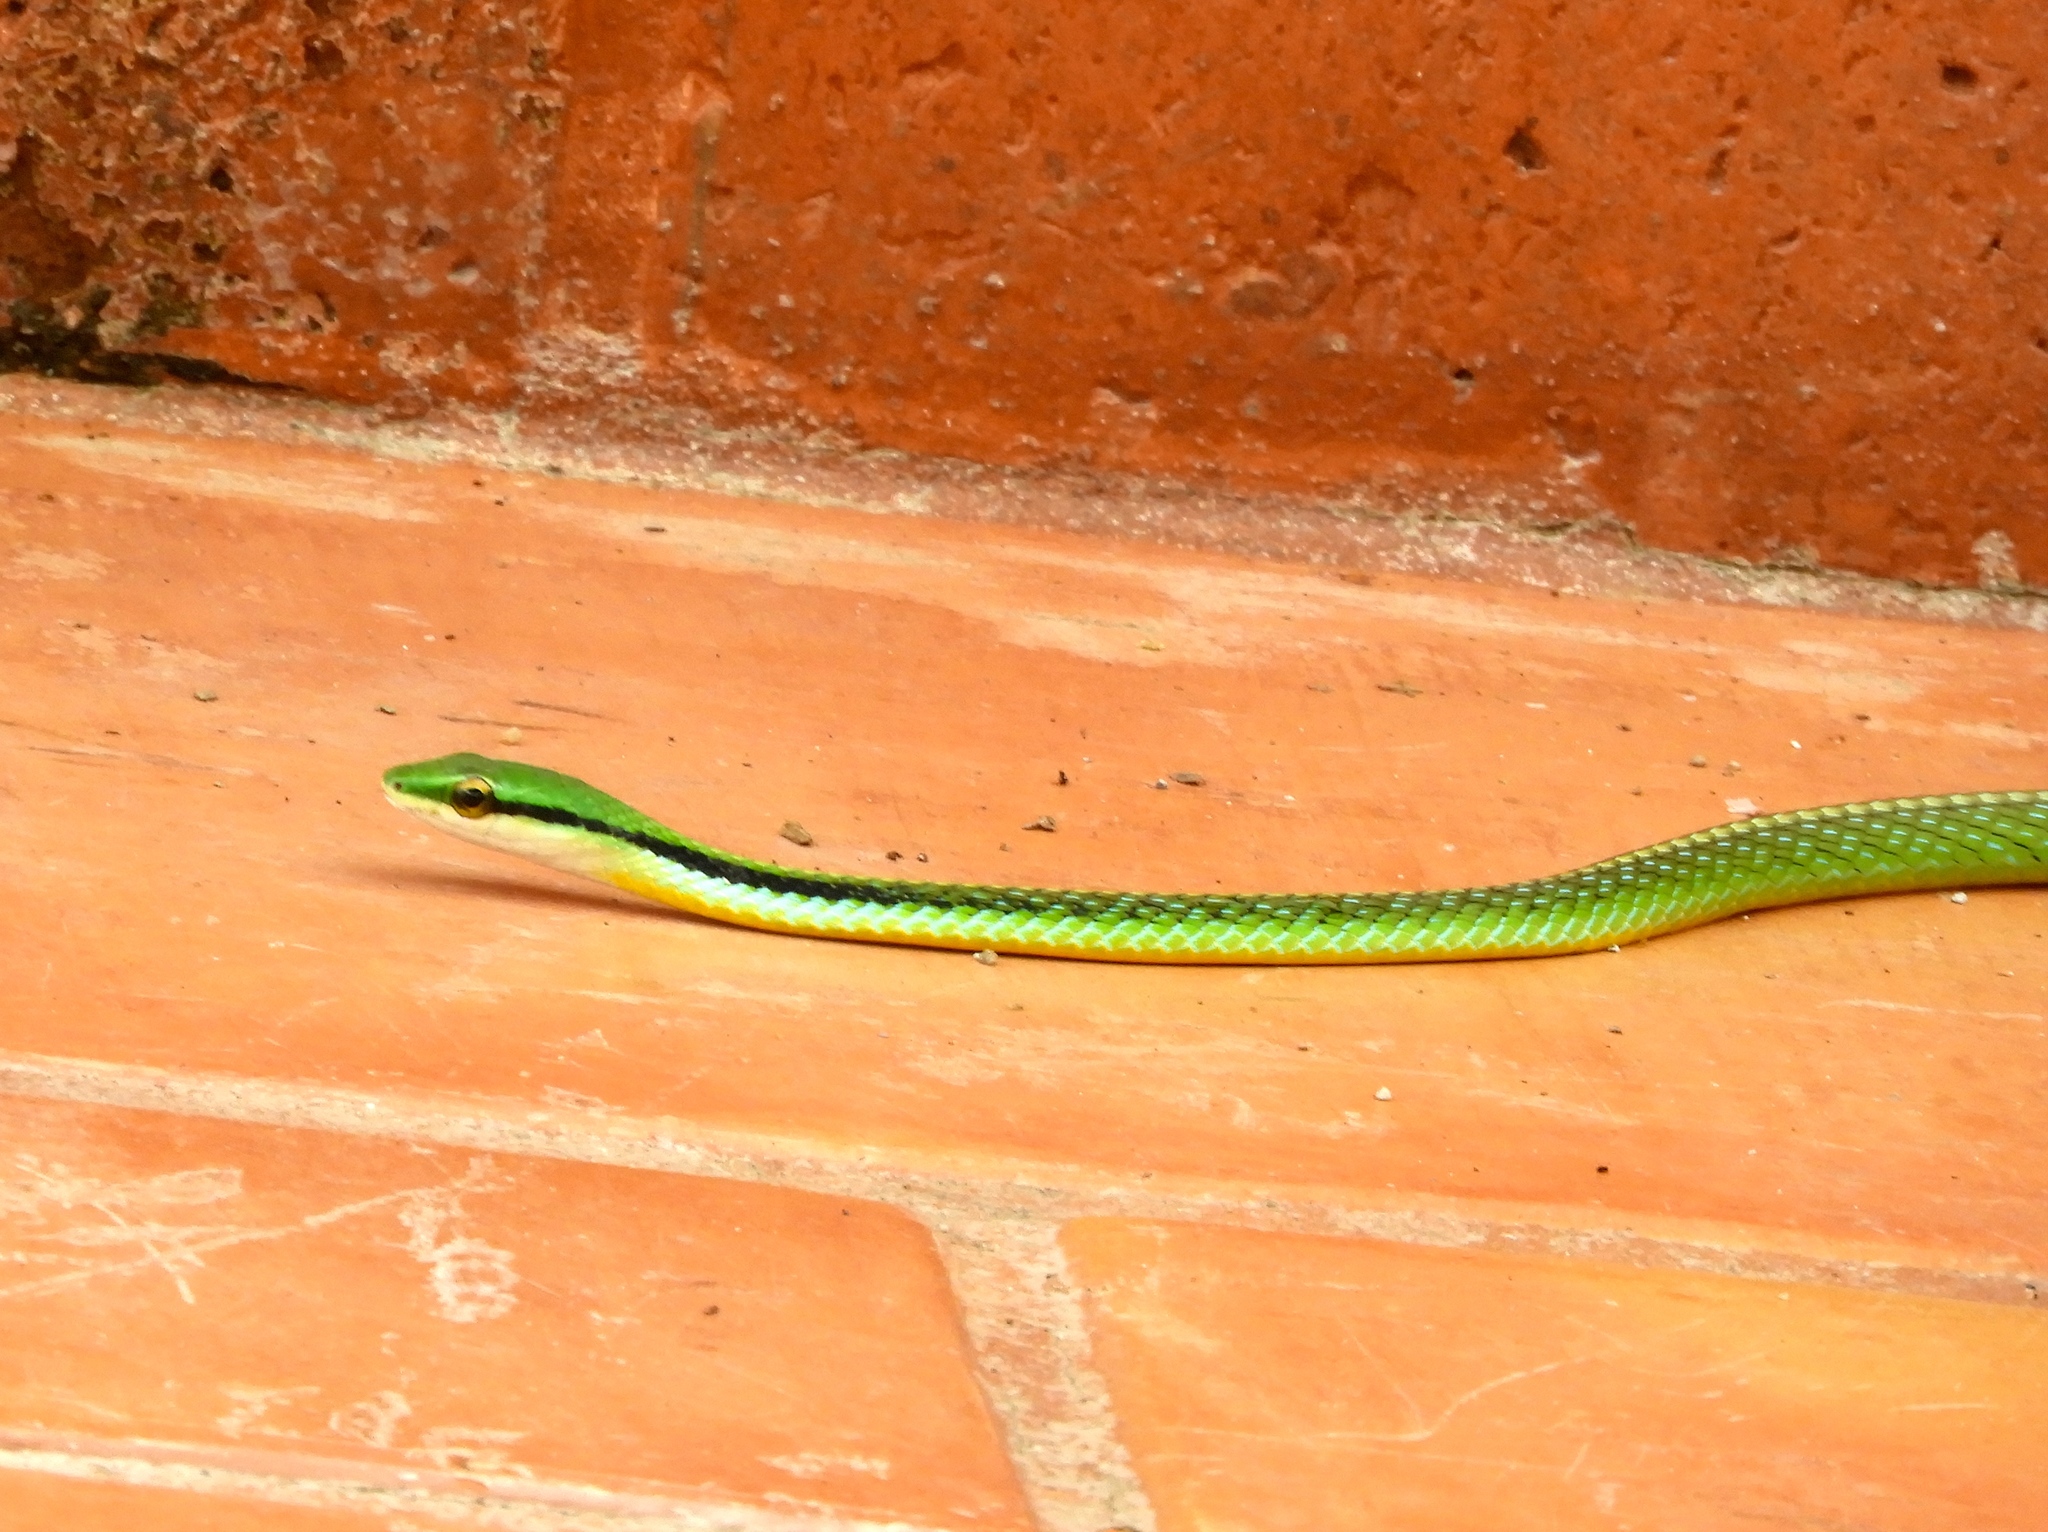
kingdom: Animalia
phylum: Chordata
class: Squamata
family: Colubridae
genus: Leptophis
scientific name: Leptophis diplotropis
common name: Pacific coast parrot snake
